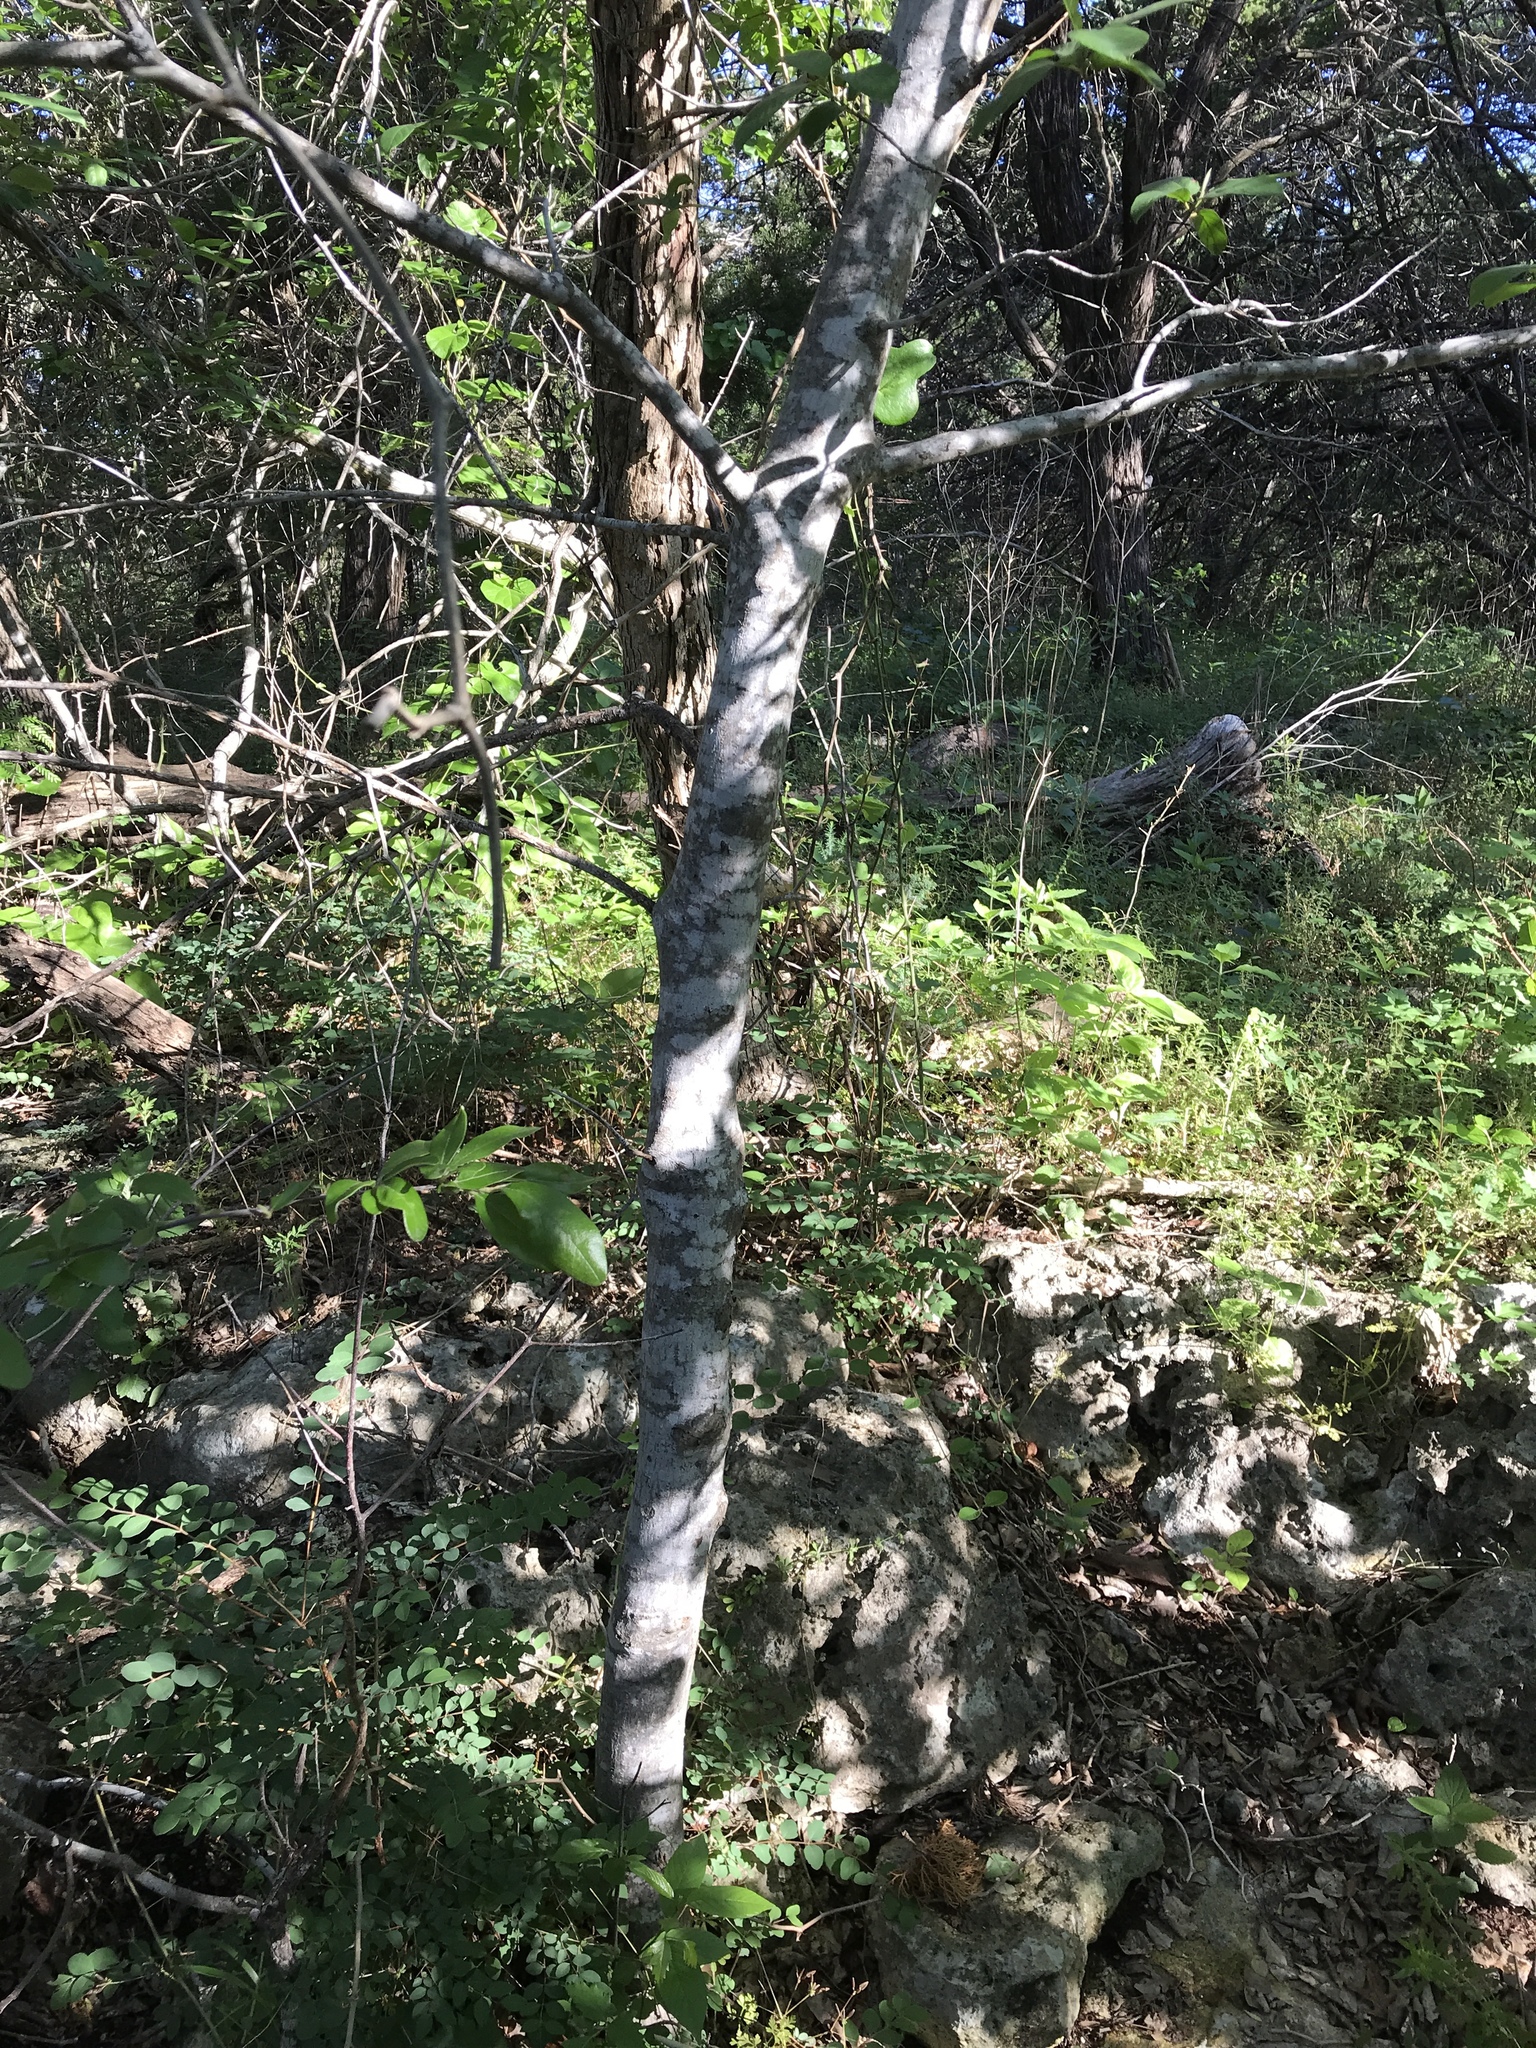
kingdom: Plantae
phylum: Tracheophyta
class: Magnoliopsida
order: Rosales
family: Rhamnaceae
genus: Frangula
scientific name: Frangula caroliniana
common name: Carolina buckthorn
